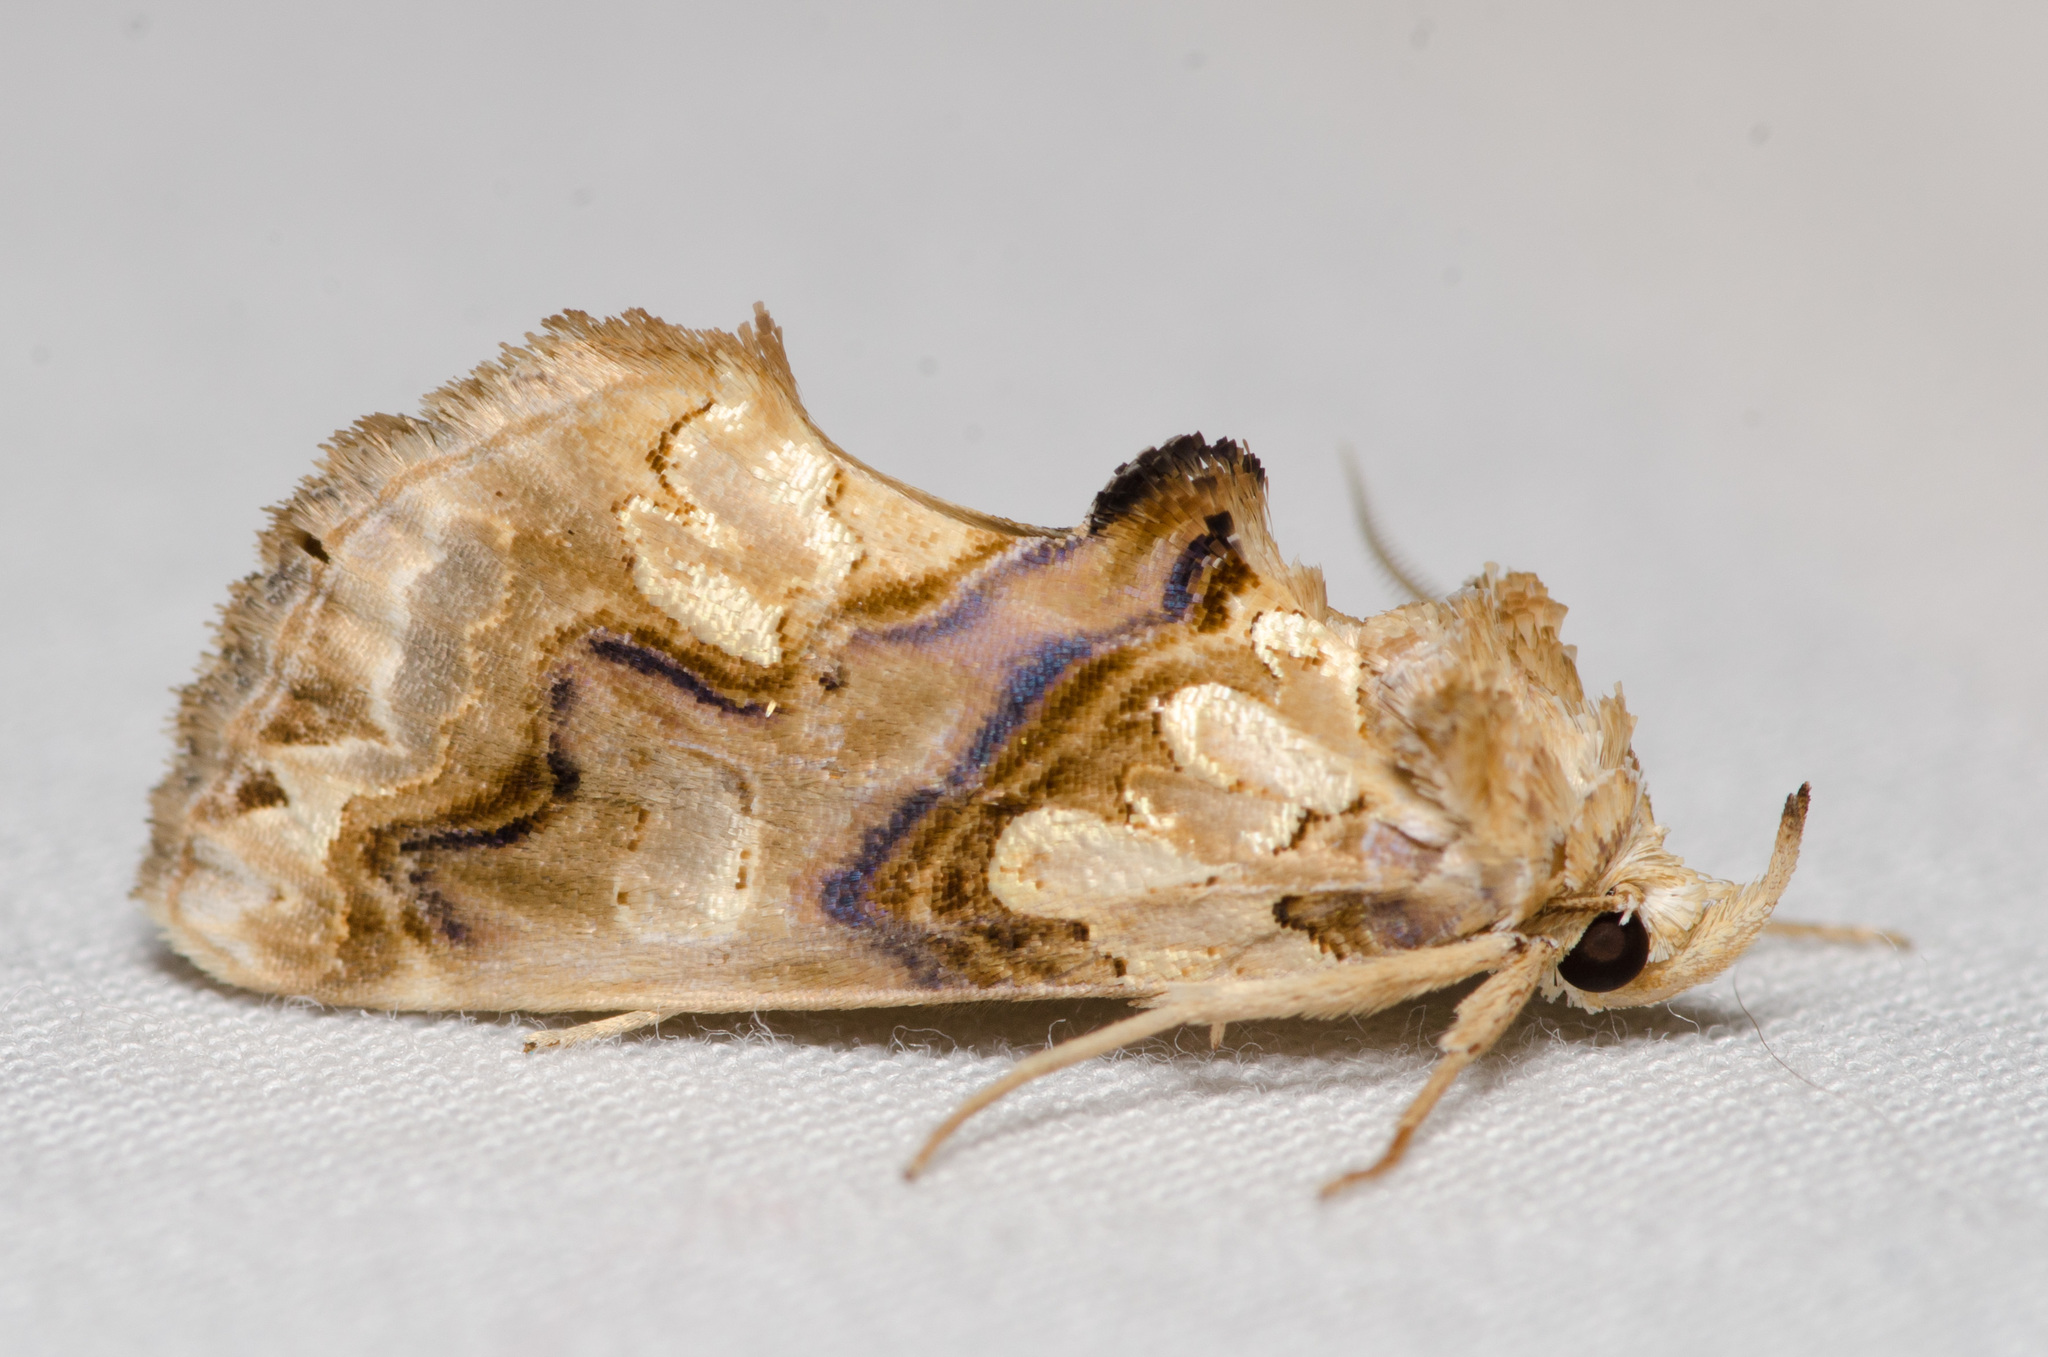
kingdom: Animalia
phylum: Arthropoda
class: Insecta
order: Lepidoptera
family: Erebidae
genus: Plusiodonta
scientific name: Plusiodonta compressipalpis
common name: Moonseed moth
